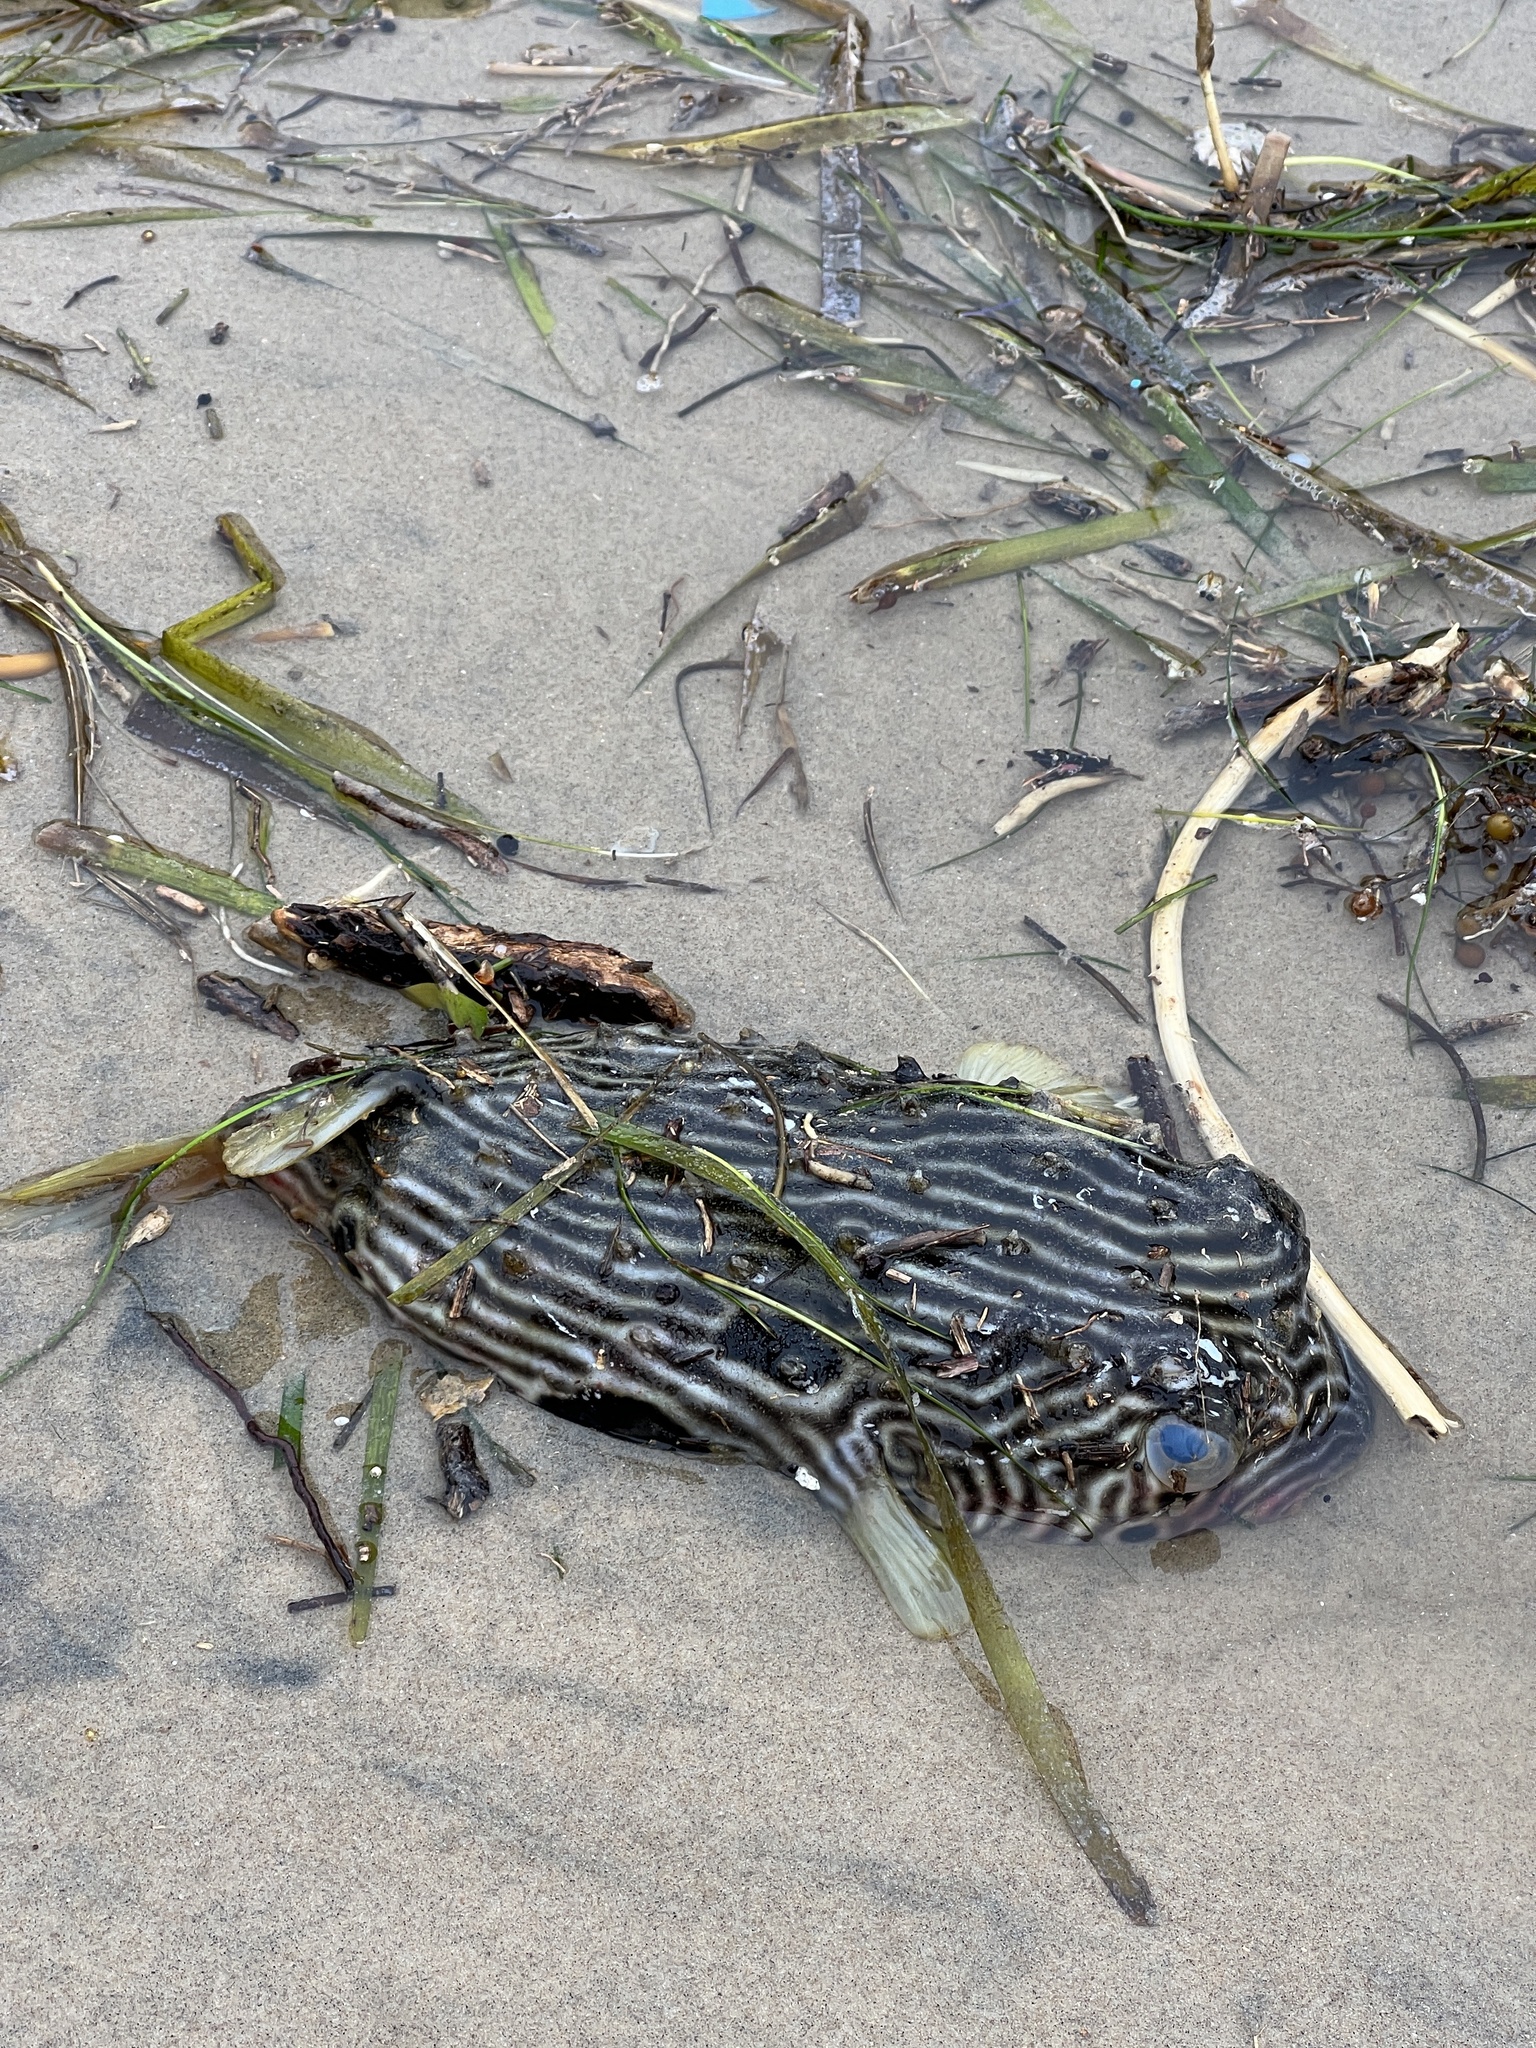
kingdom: Animalia
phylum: Chordata
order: Tetraodontiformes
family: Diodontidae
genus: Chilomycterus
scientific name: Chilomycterus schoepfii
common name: Striped burrfish
